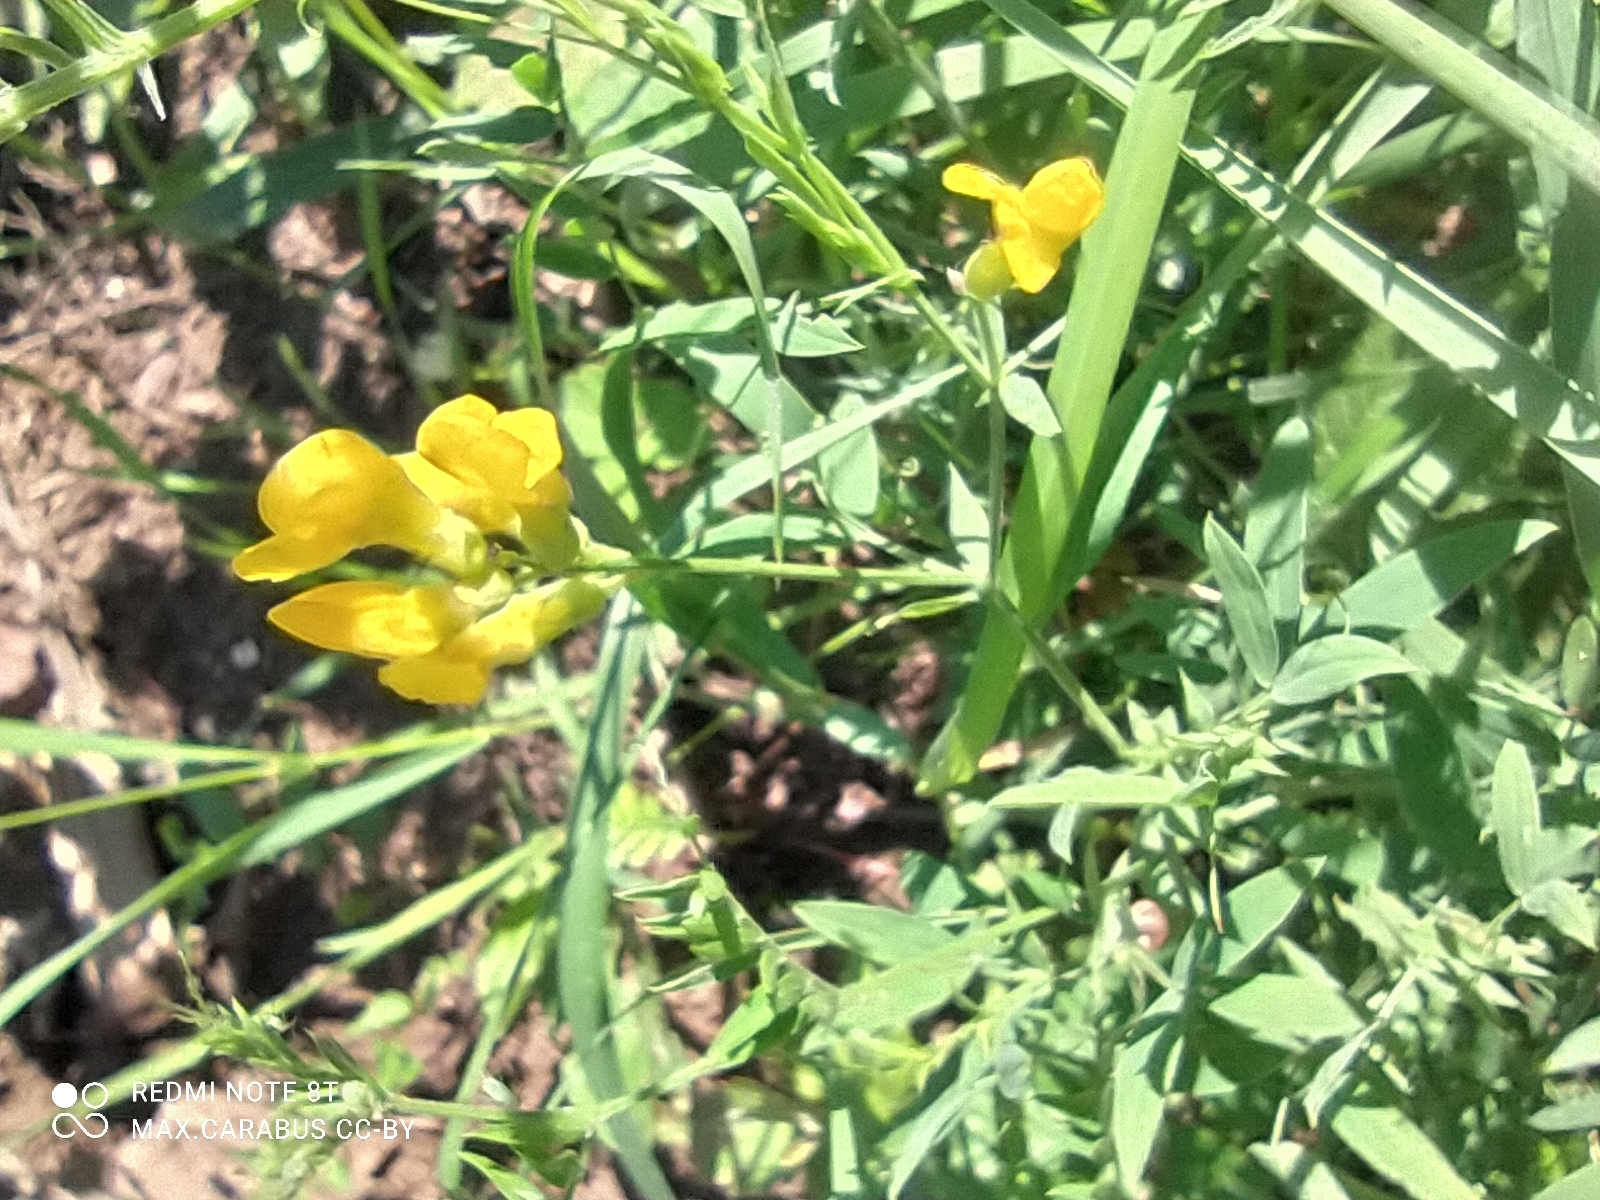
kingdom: Plantae
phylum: Tracheophyta
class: Magnoliopsida
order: Fabales
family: Fabaceae
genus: Lathyrus
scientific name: Lathyrus pratensis
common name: Meadow vetchling
